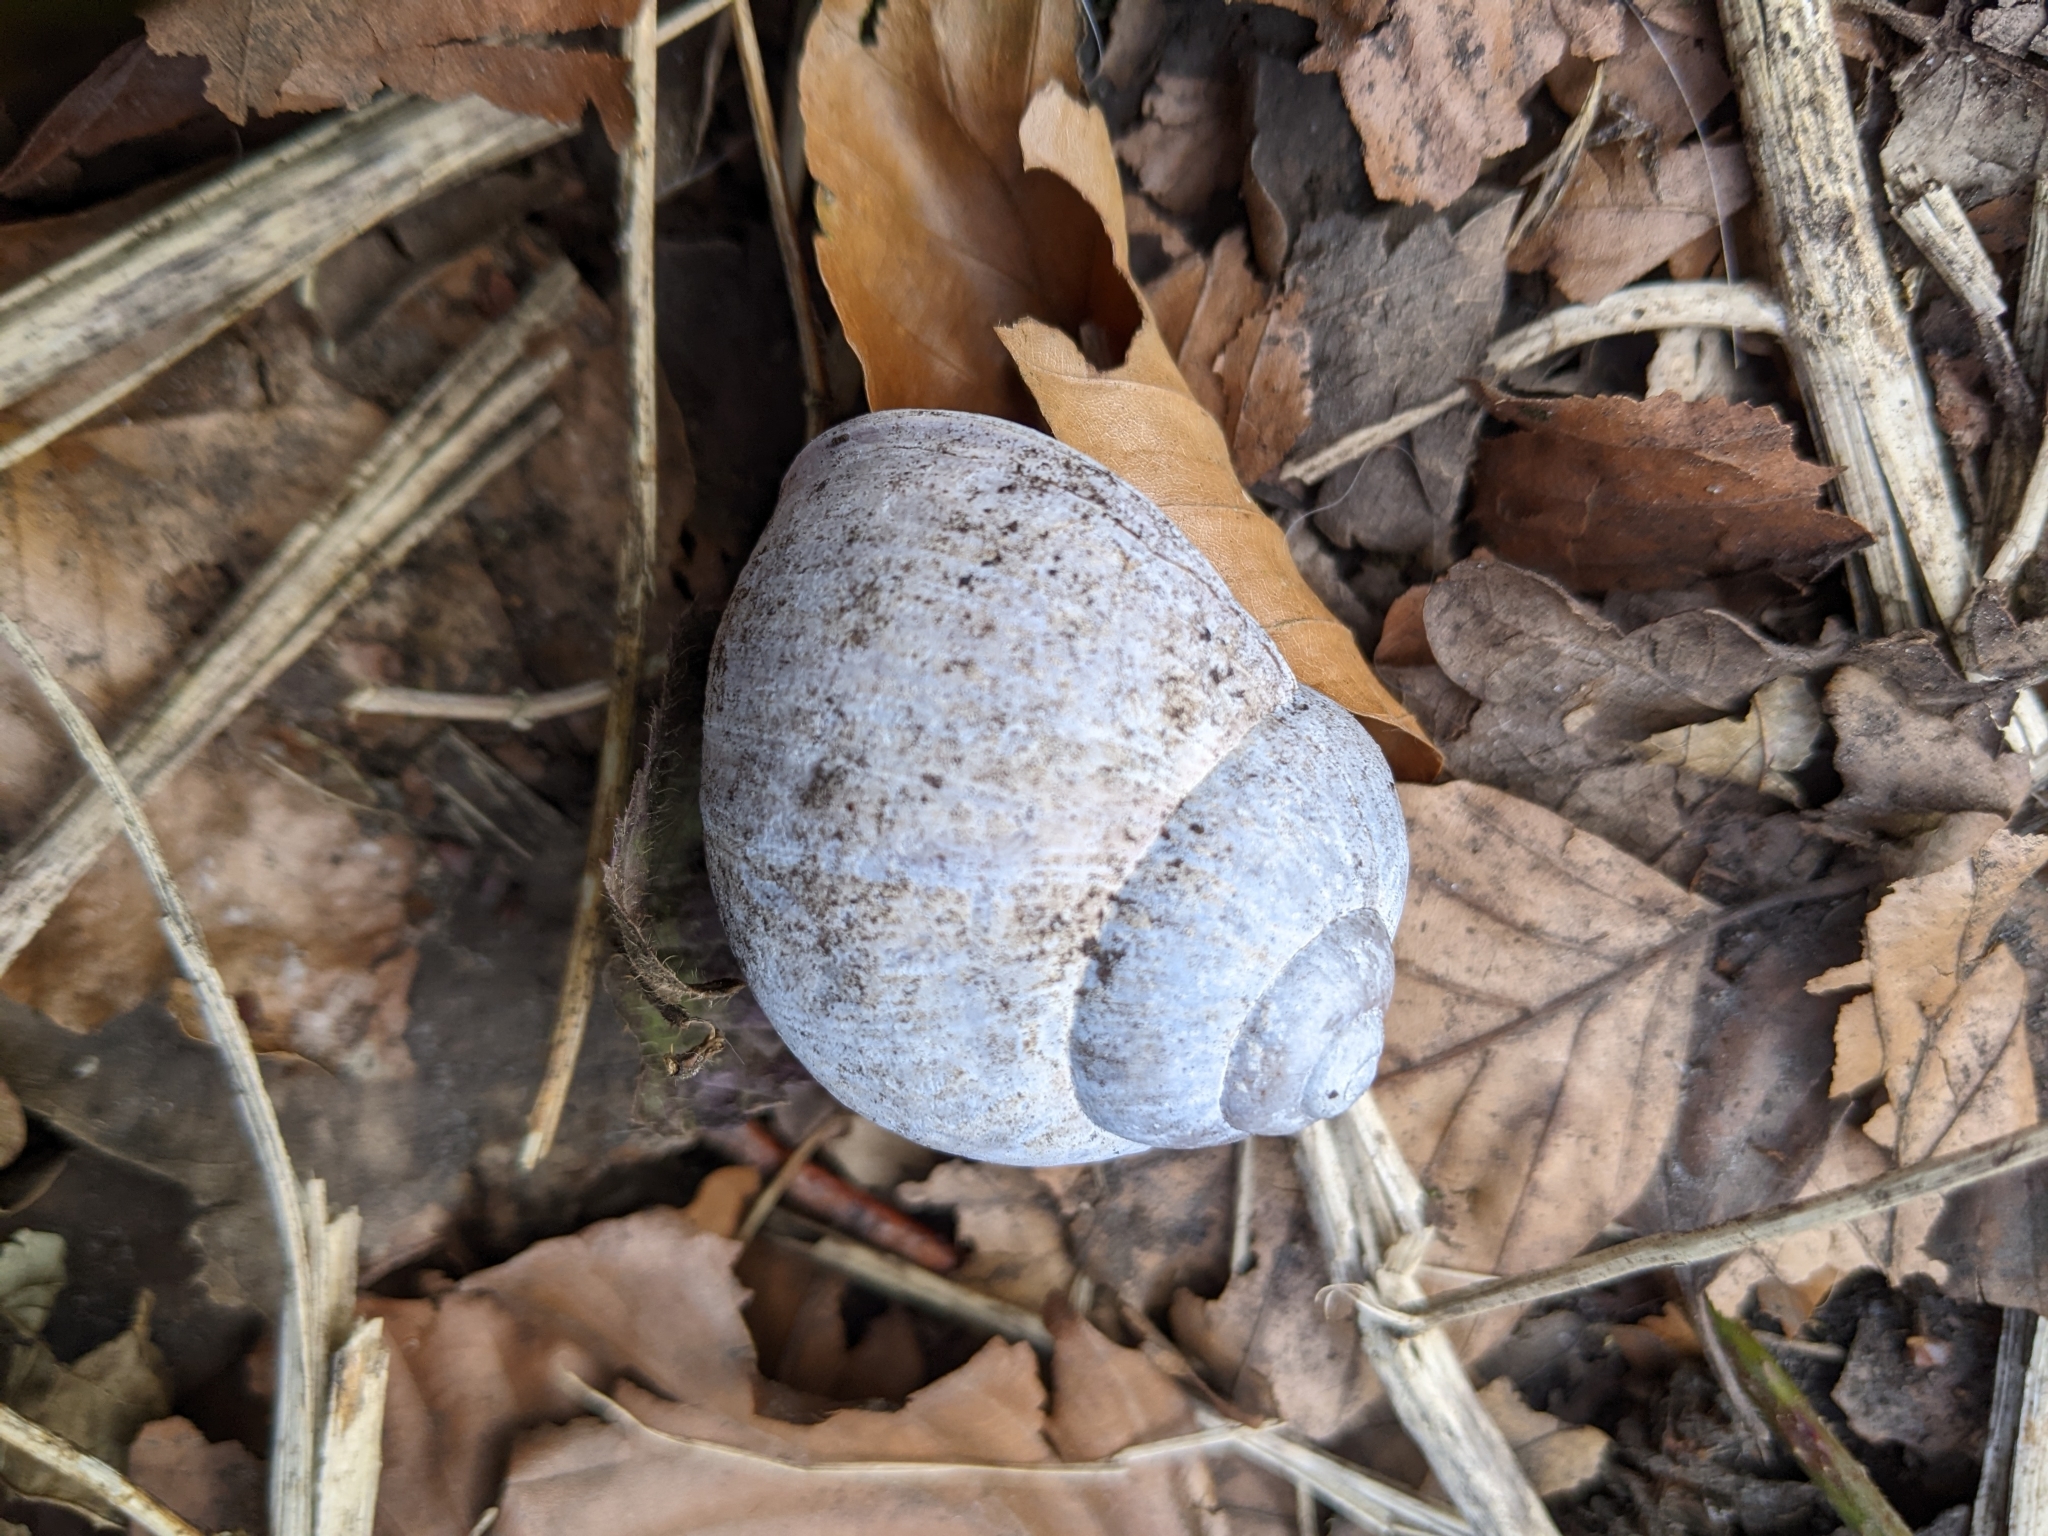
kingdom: Animalia
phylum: Mollusca
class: Gastropoda
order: Stylommatophora
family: Helicidae
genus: Helix
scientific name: Helix pomatia
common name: Roman snail
